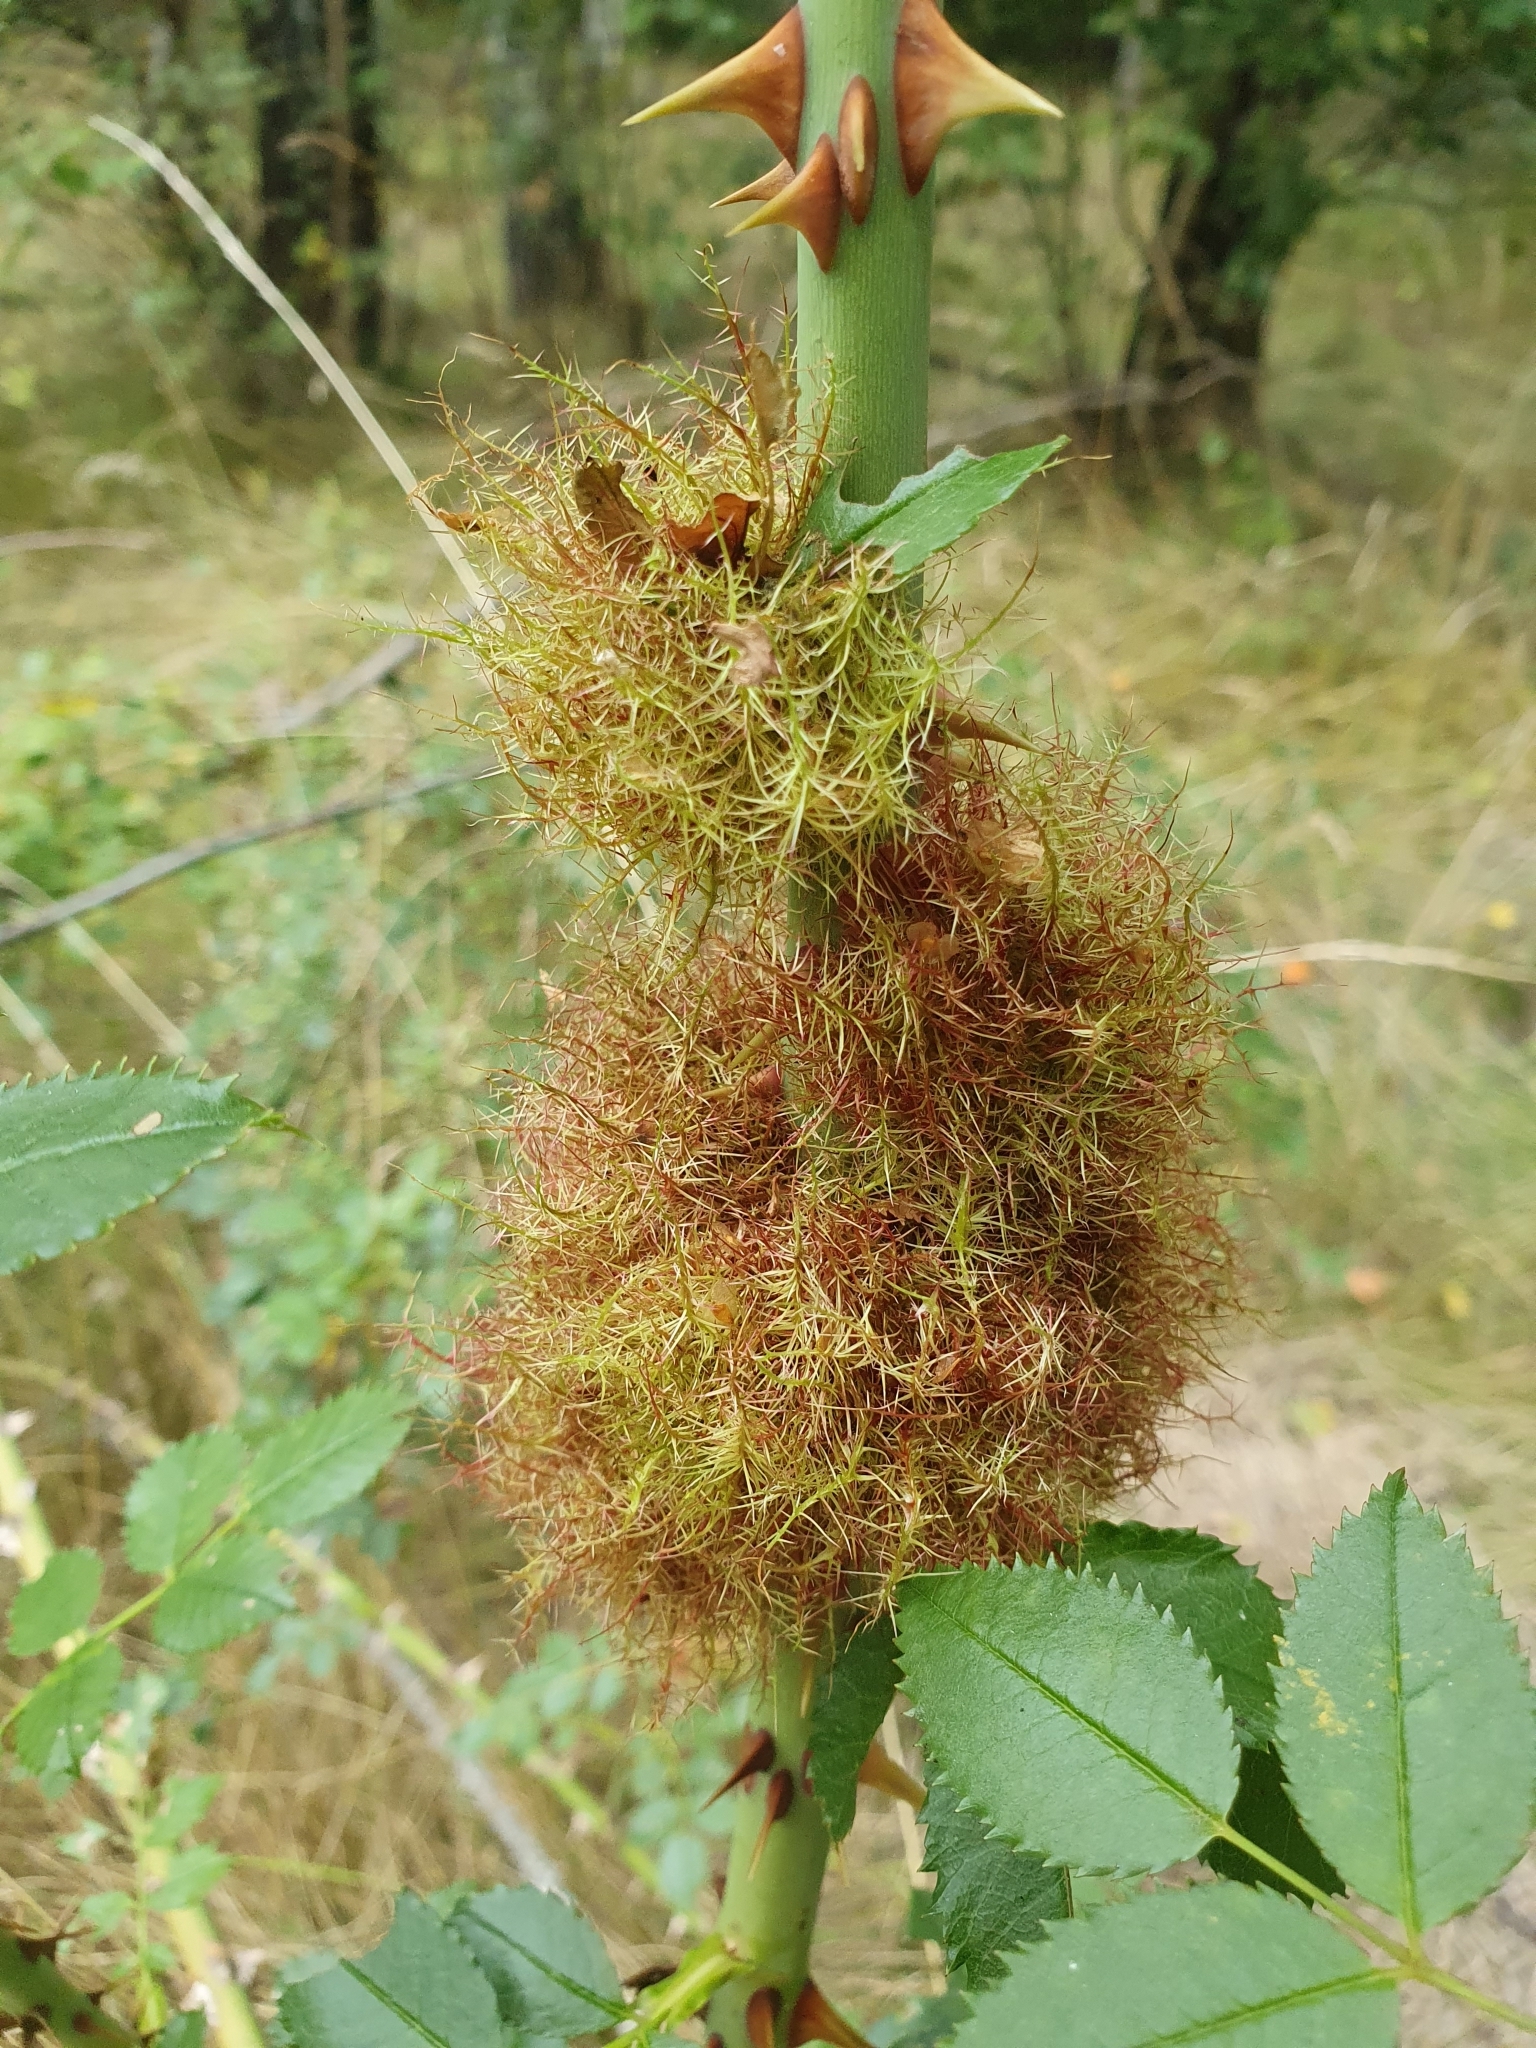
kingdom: Animalia
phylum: Arthropoda
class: Insecta
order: Hymenoptera
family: Cynipidae
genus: Diplolepis
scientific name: Diplolepis rosae
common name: Bedeguar gall
